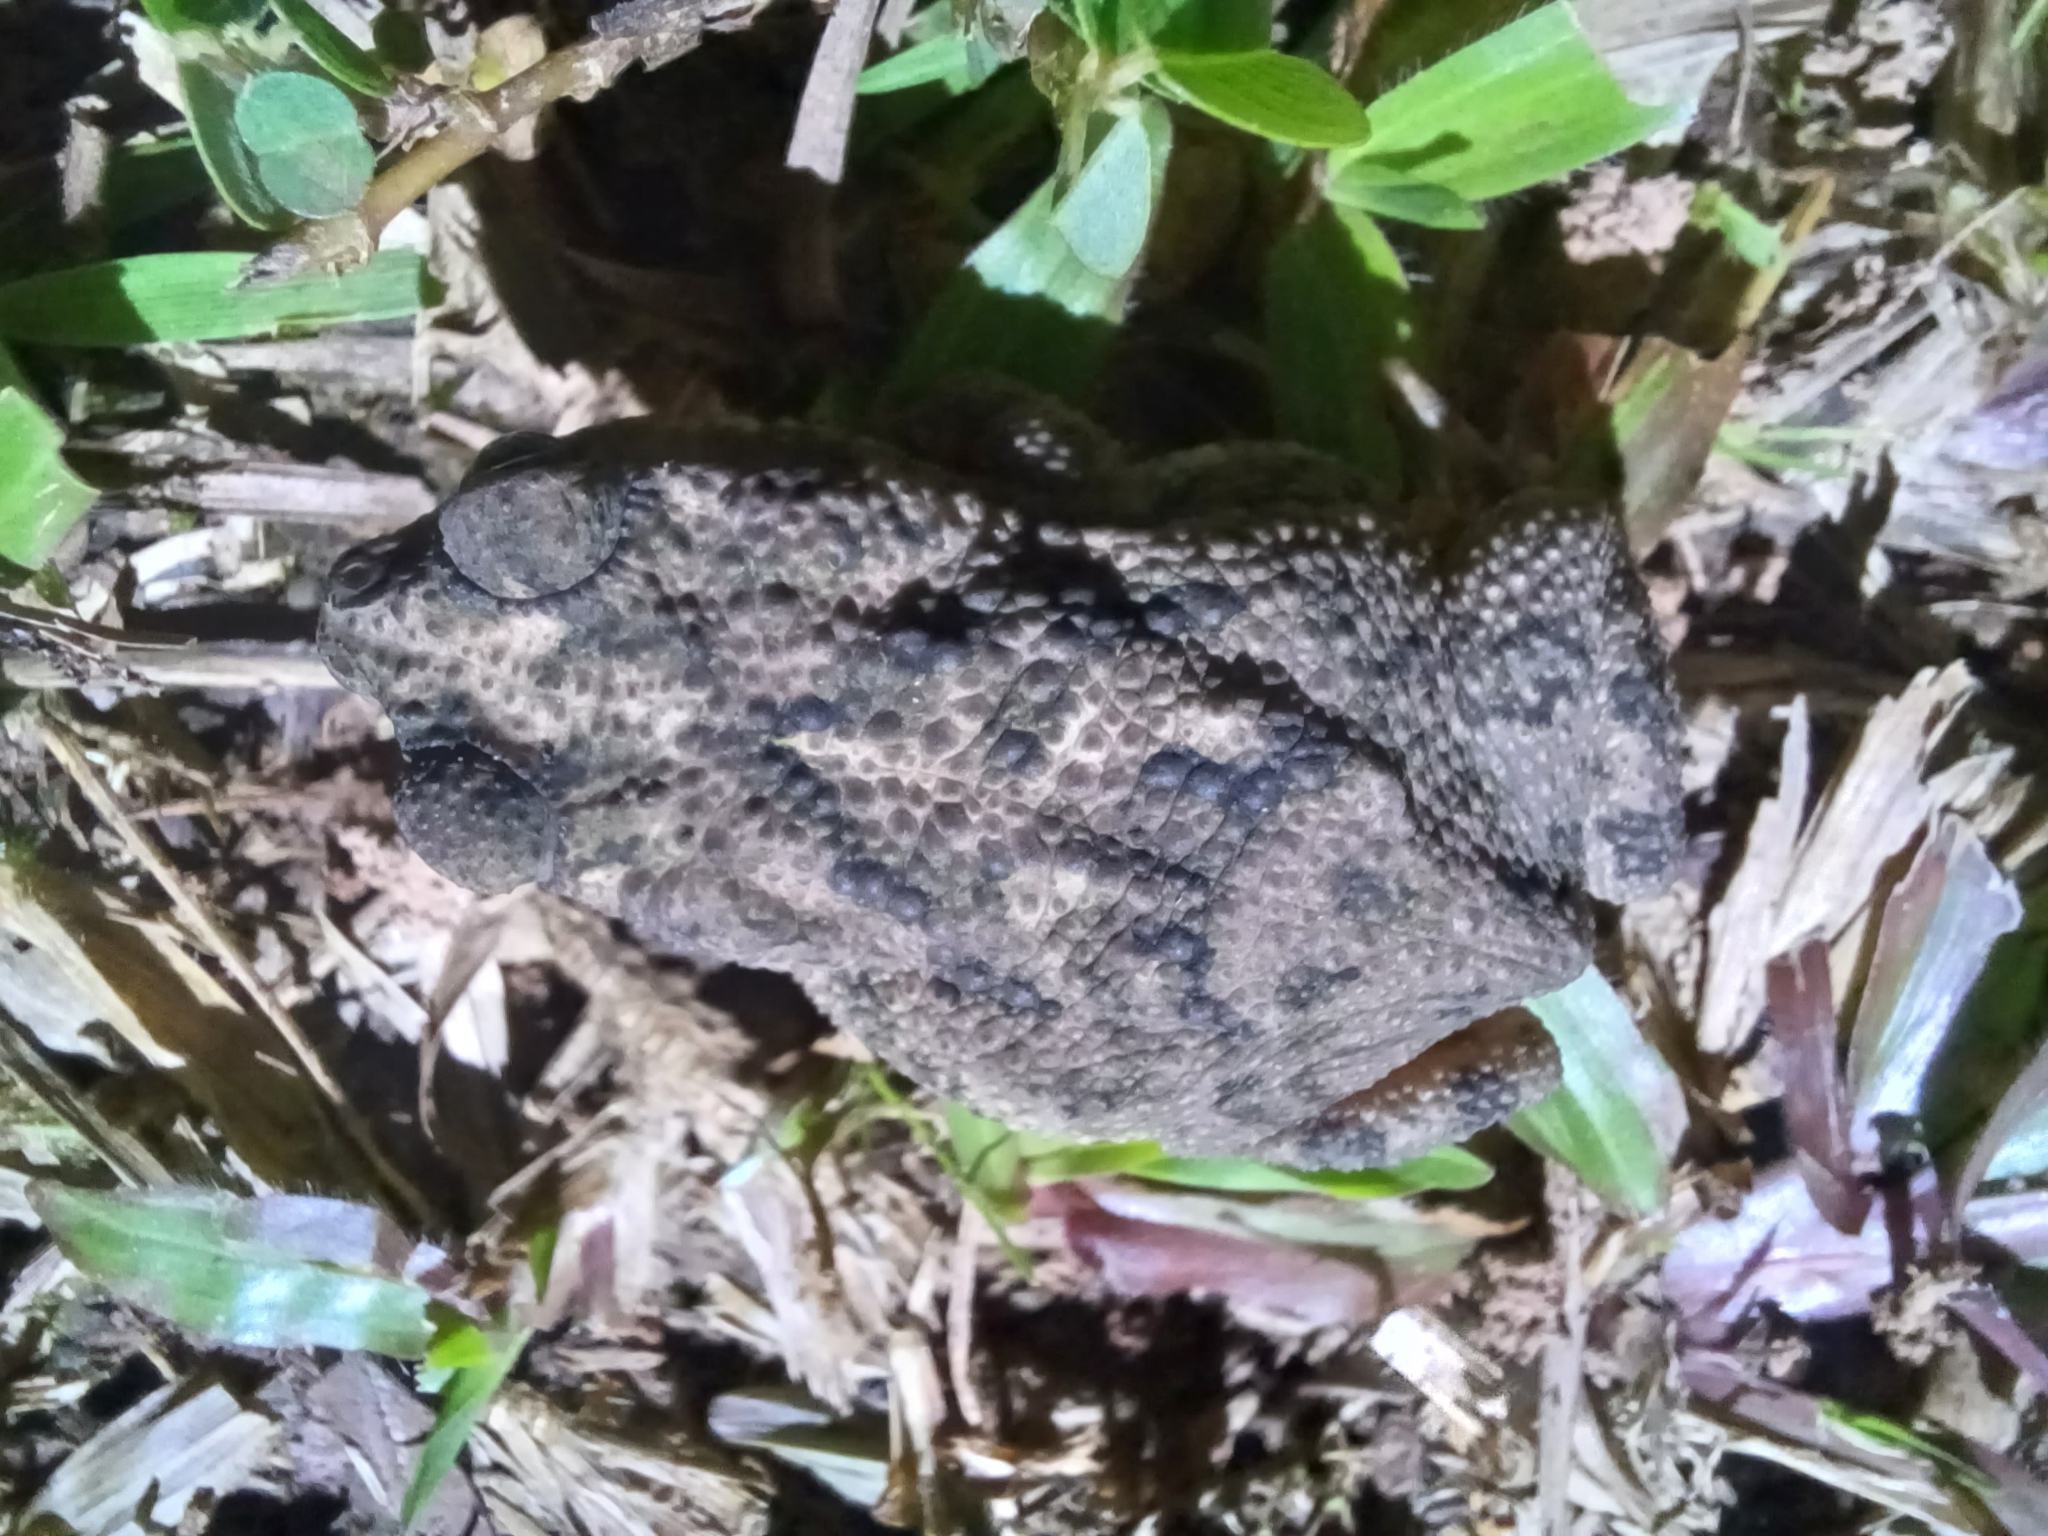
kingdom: Animalia
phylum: Chordata
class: Amphibia
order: Anura
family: Bufonidae
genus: Rhinella
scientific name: Rhinella humboldti
